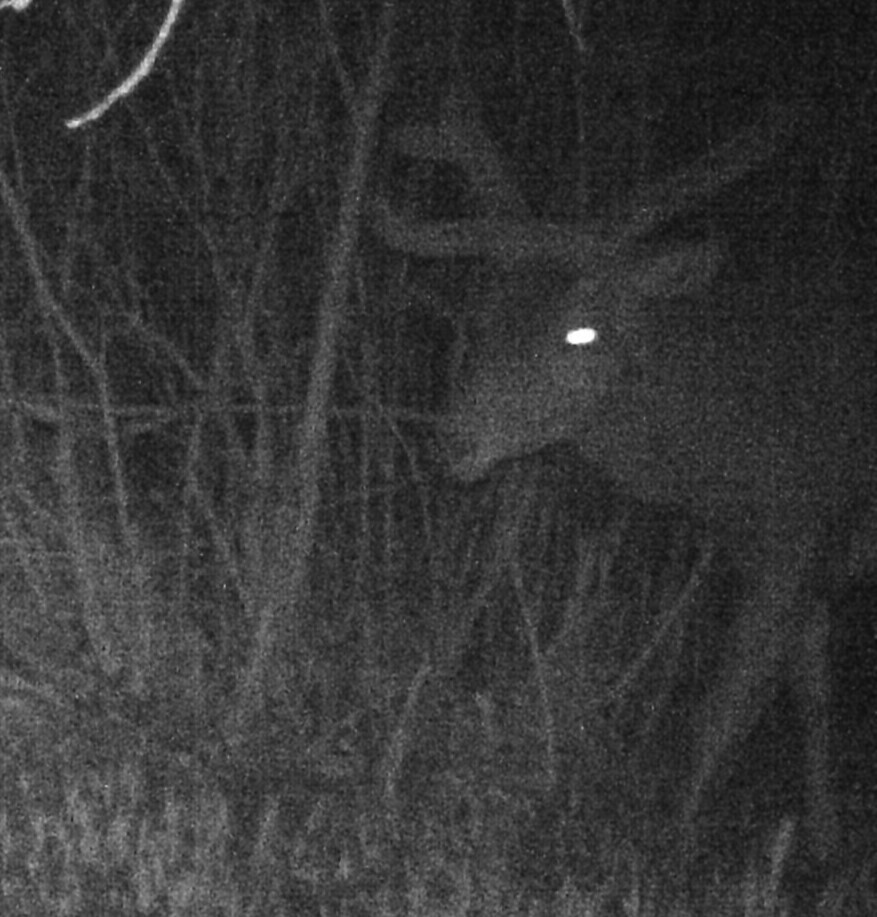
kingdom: Animalia
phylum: Chordata
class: Mammalia
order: Artiodactyla
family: Cervidae
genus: Cervus
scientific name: Cervus elaphus
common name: Red deer
